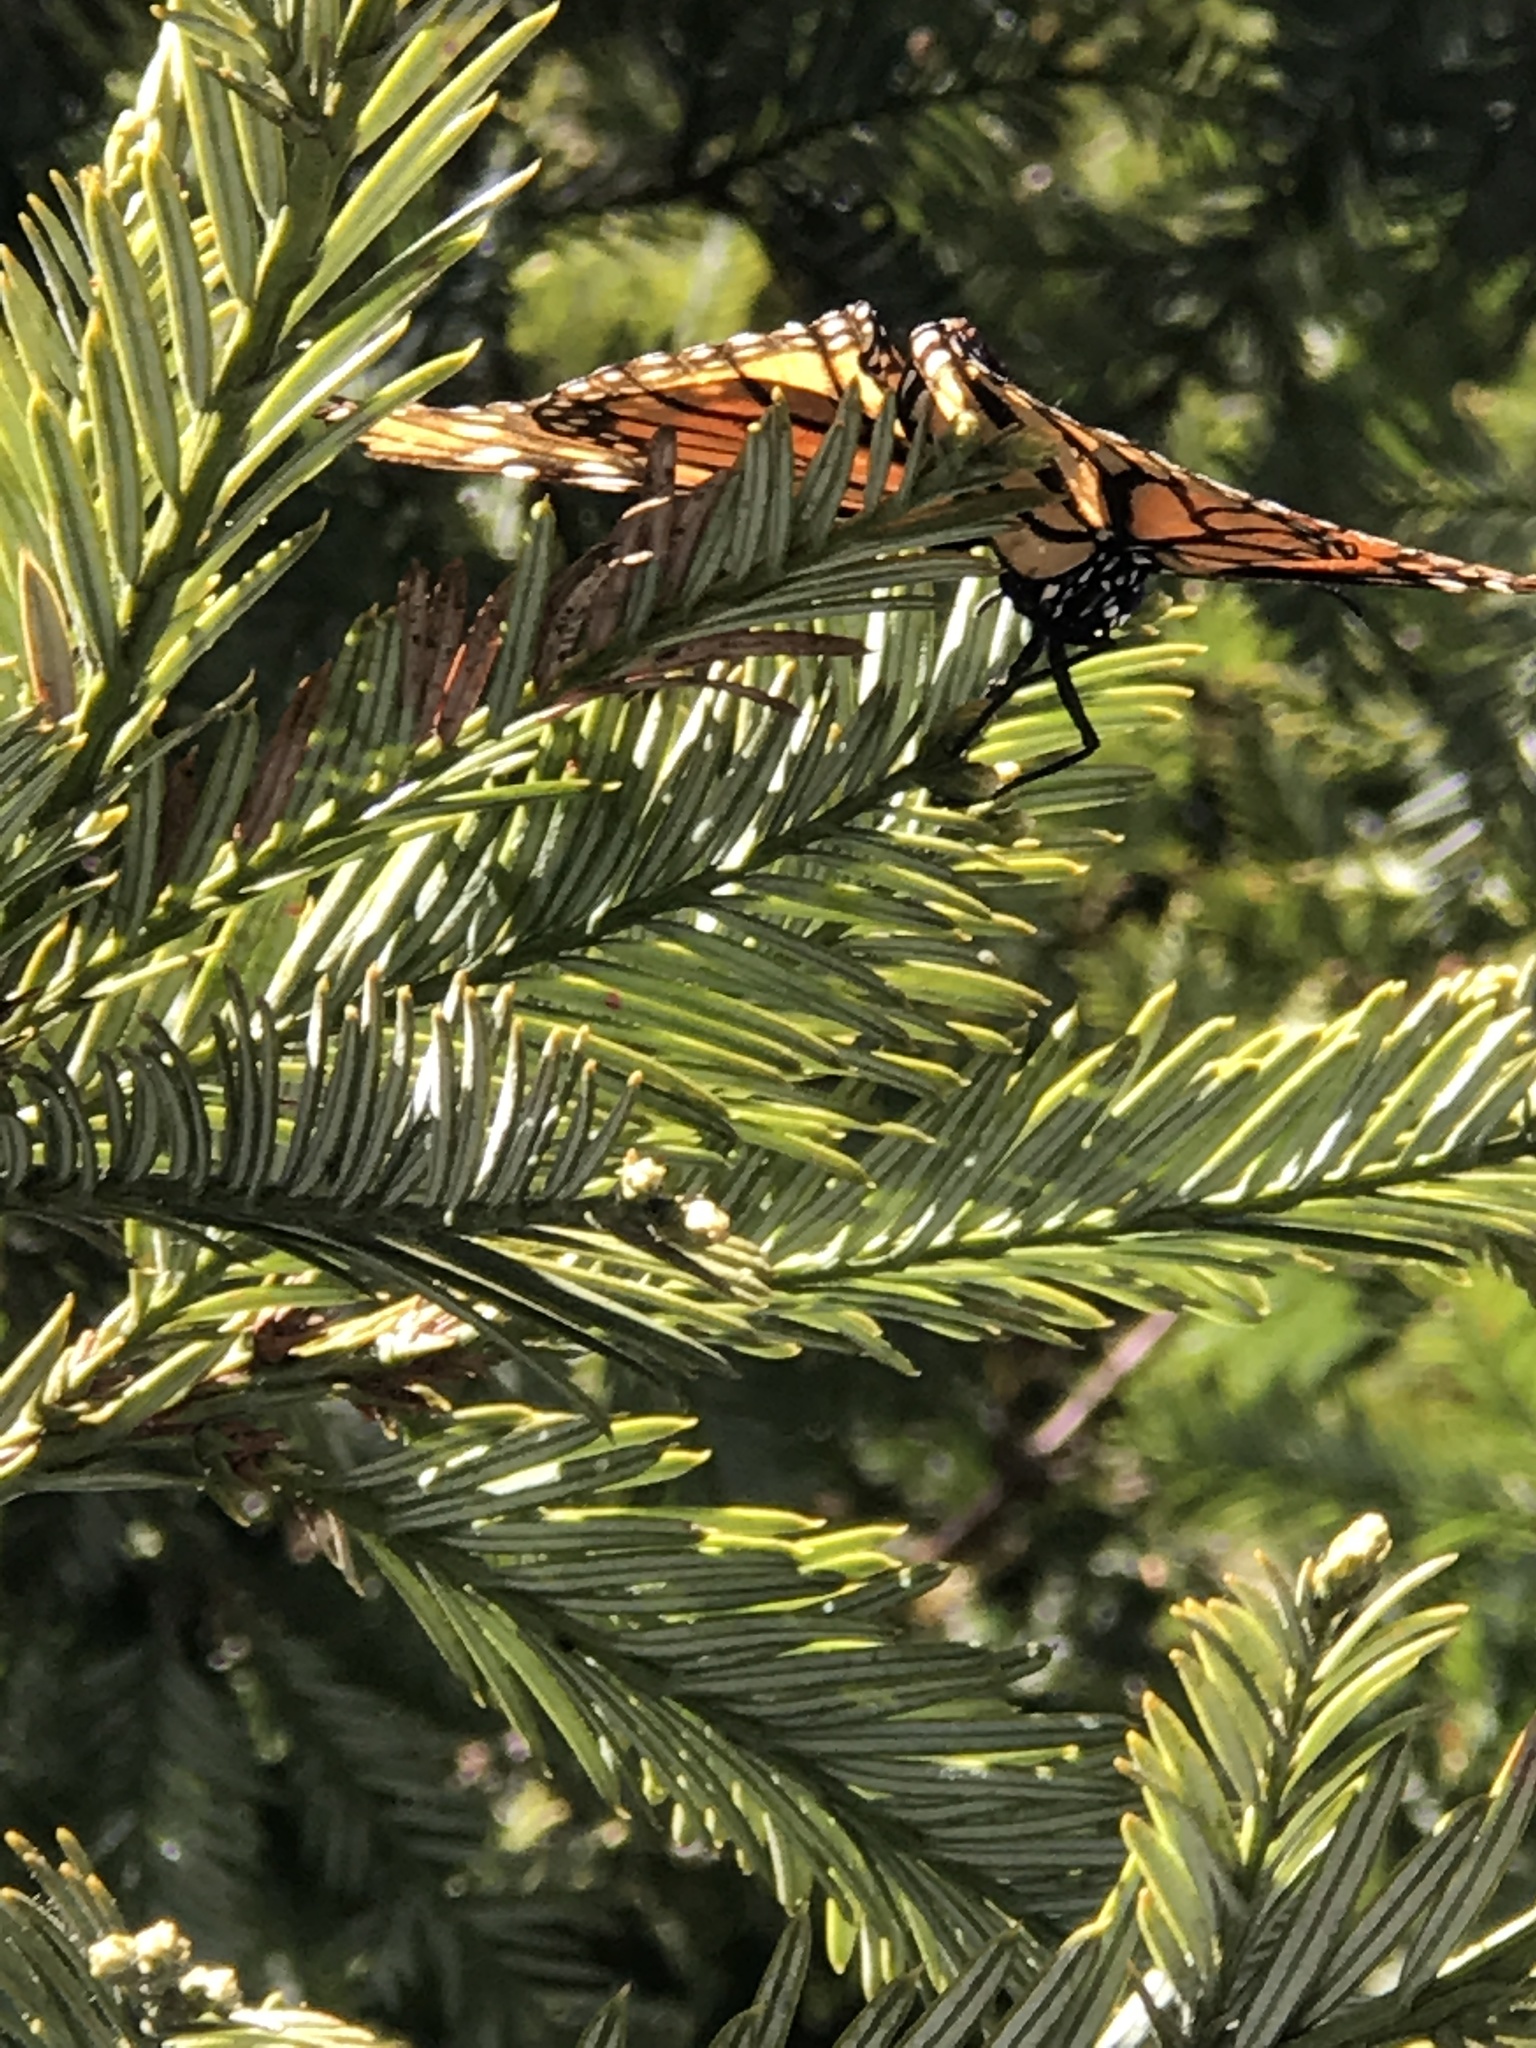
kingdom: Animalia
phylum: Arthropoda
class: Insecta
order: Lepidoptera
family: Nymphalidae
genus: Danaus
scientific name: Danaus plexippus
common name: Monarch
